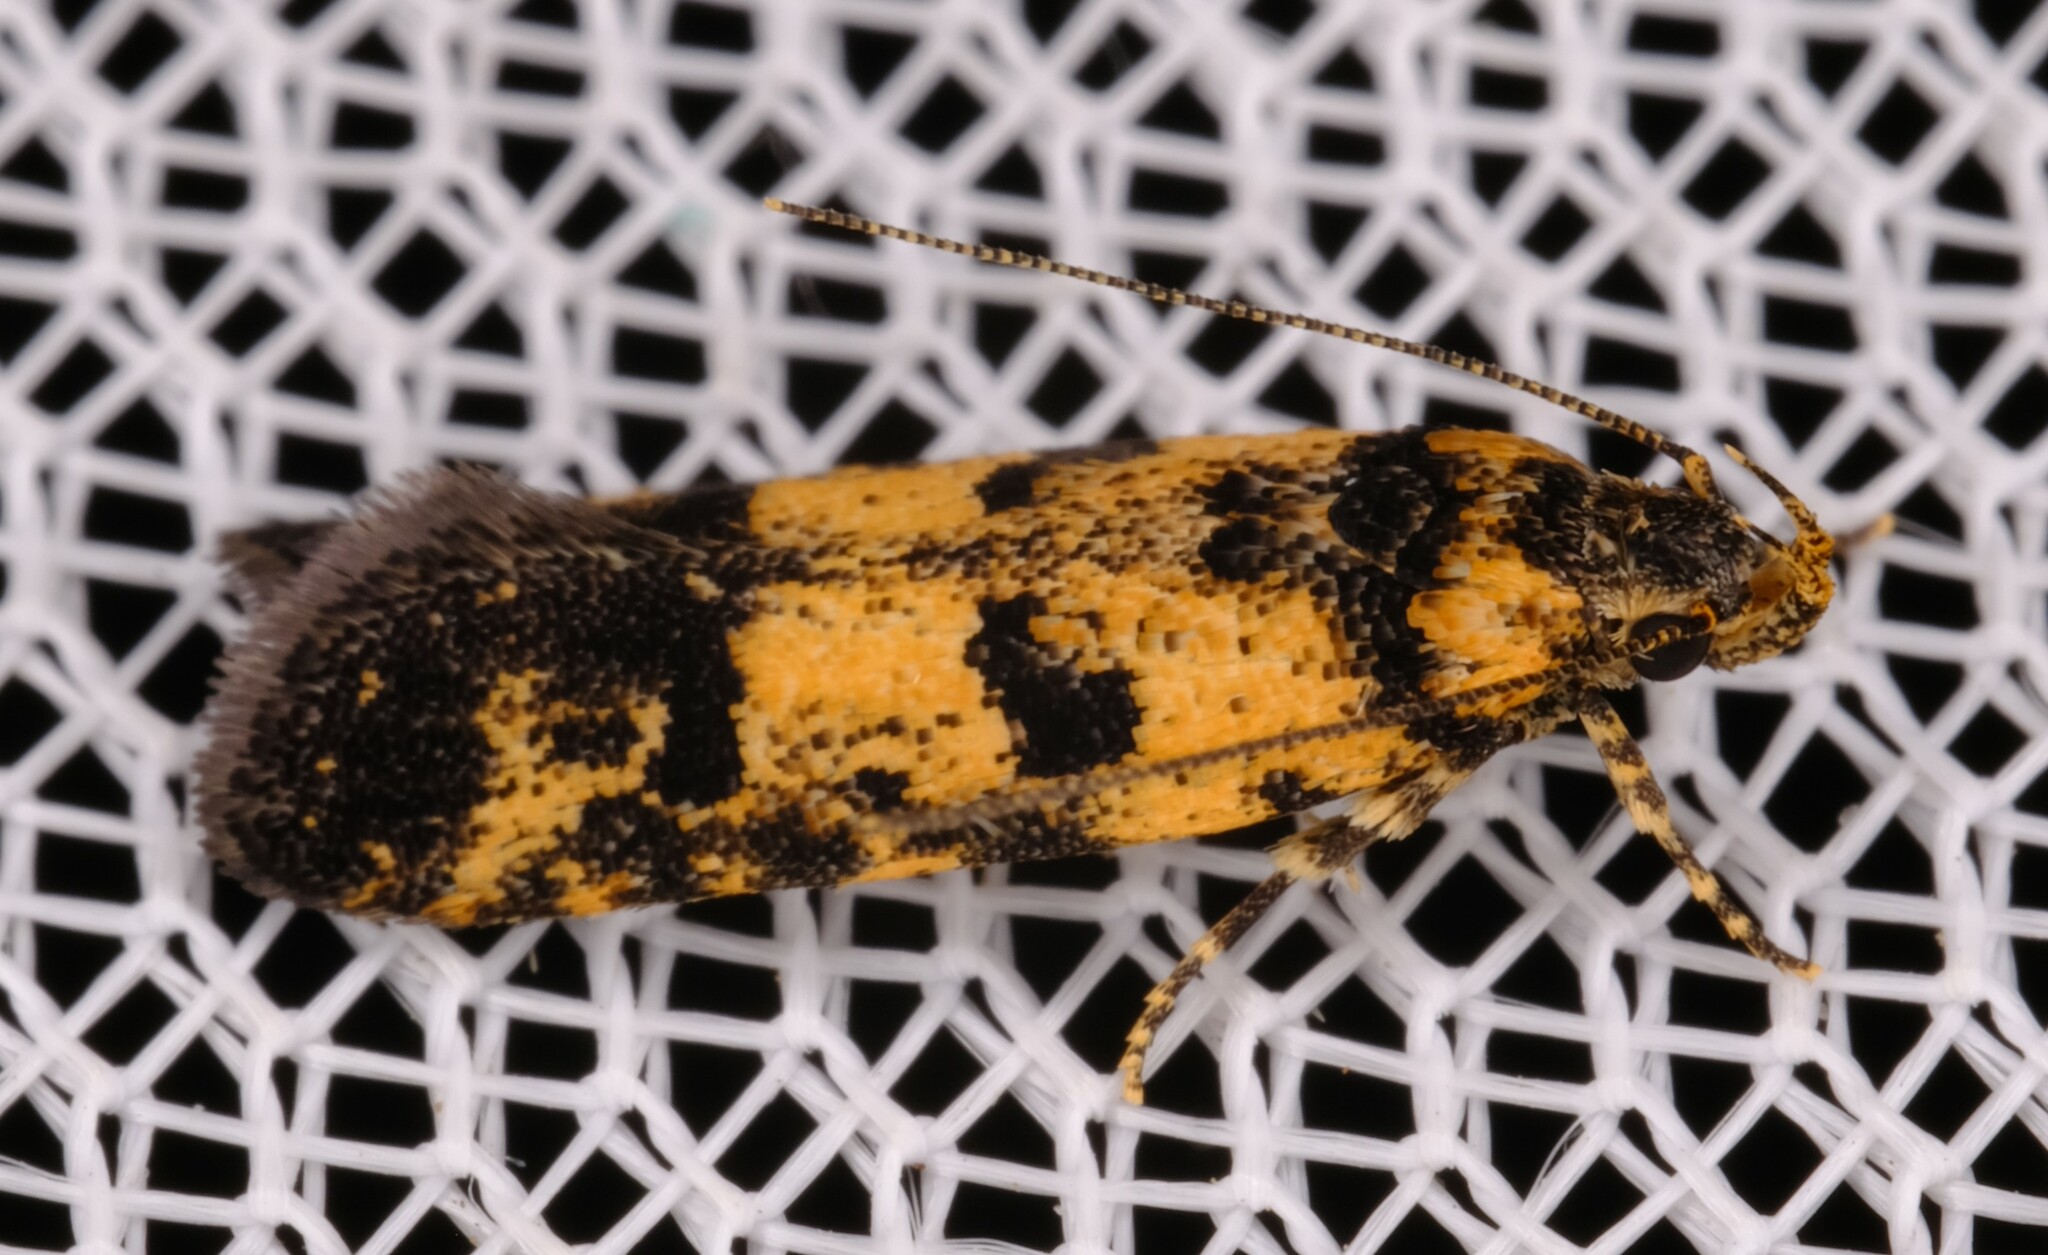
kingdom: Animalia
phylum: Arthropoda
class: Insecta
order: Lepidoptera
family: Gelechiidae
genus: Ardozyga
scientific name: Ardozyga thermochroa
